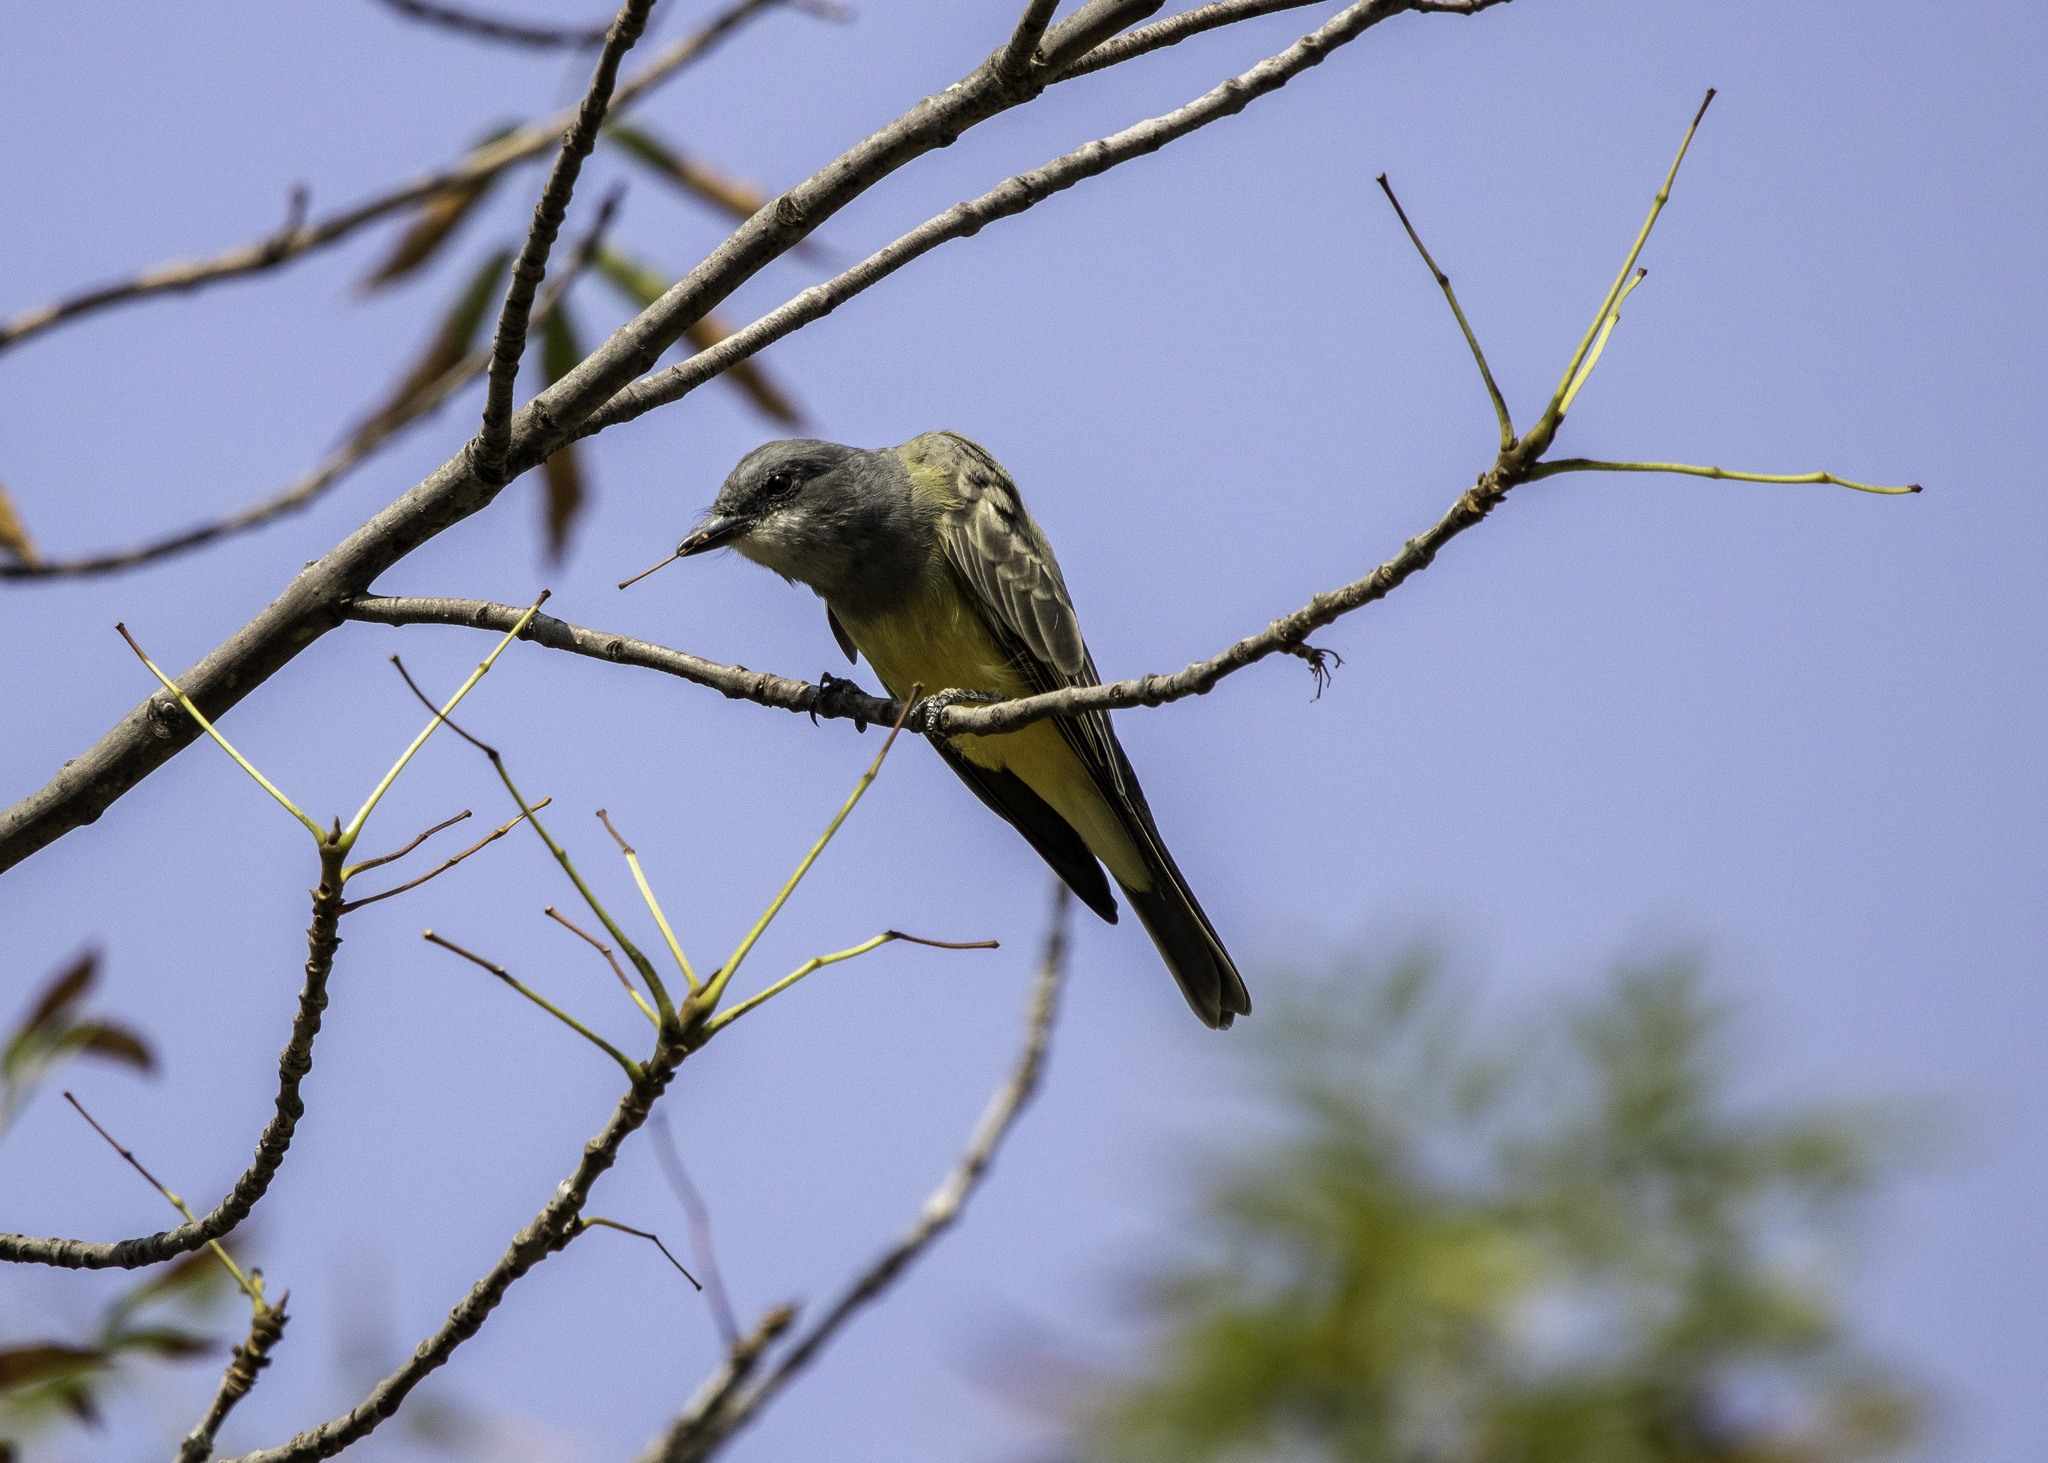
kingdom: Animalia
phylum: Chordata
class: Aves
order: Passeriformes
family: Tyrannidae
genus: Tyrannus
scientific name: Tyrannus vociferans
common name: Cassin's kingbird
